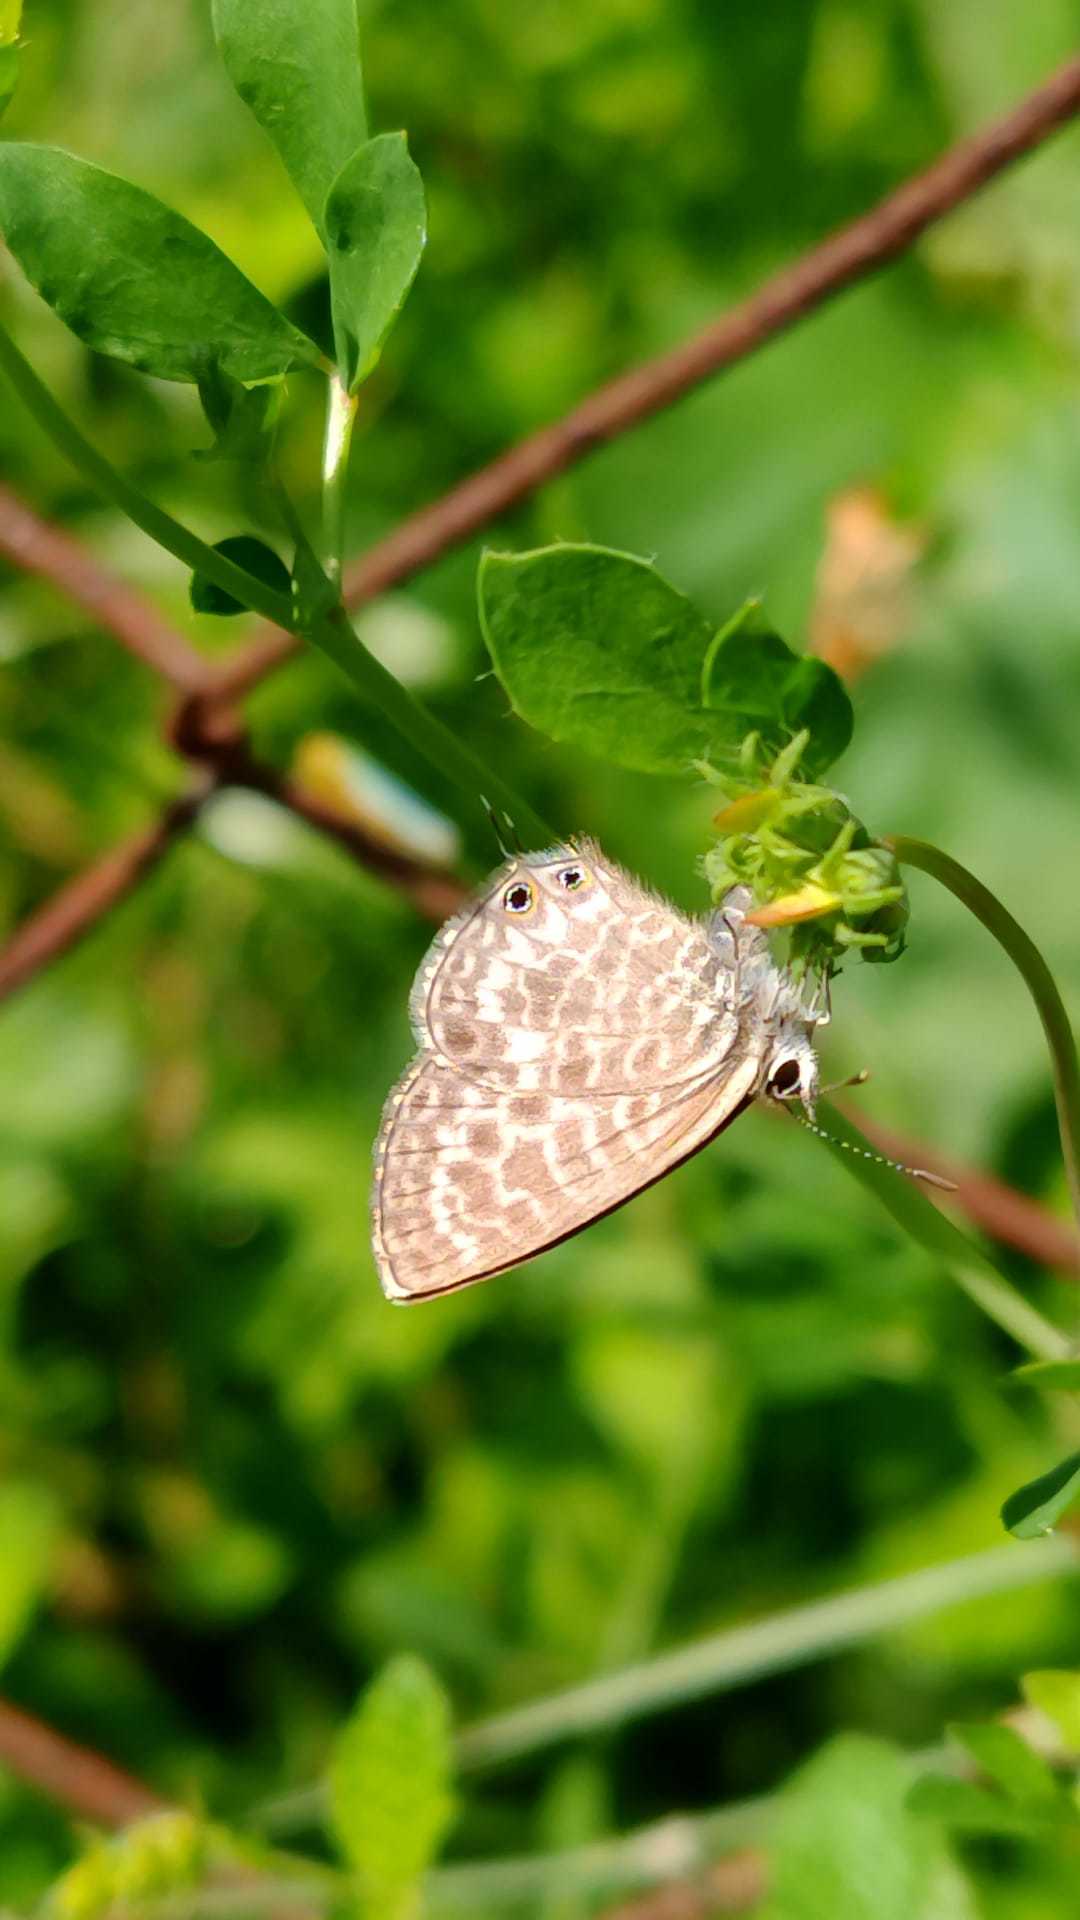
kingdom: Animalia
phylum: Arthropoda
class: Insecta
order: Lepidoptera
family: Lycaenidae
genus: Leptotes
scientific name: Leptotes pirithous
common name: Lang's short-tailed blue
